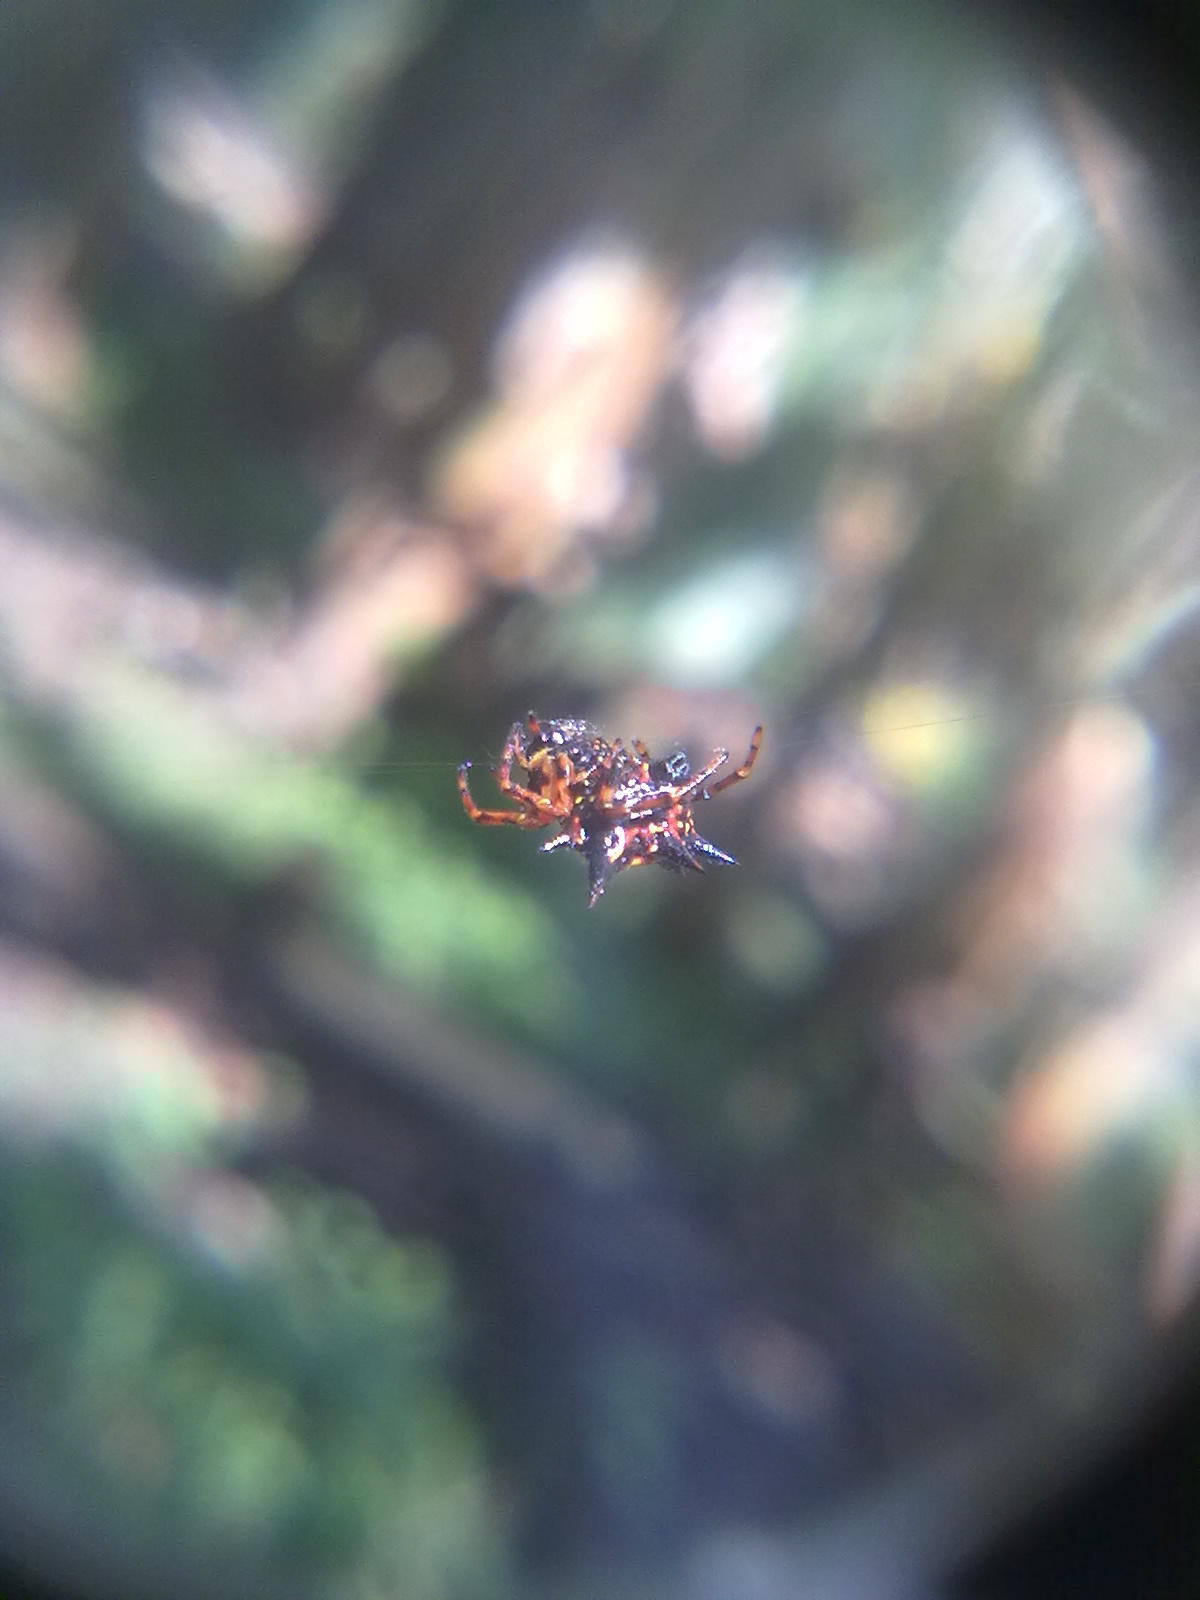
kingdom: Animalia
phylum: Arthropoda
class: Arachnida
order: Araneae
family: Araneidae
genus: Macracantha
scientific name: Macracantha hasselti
